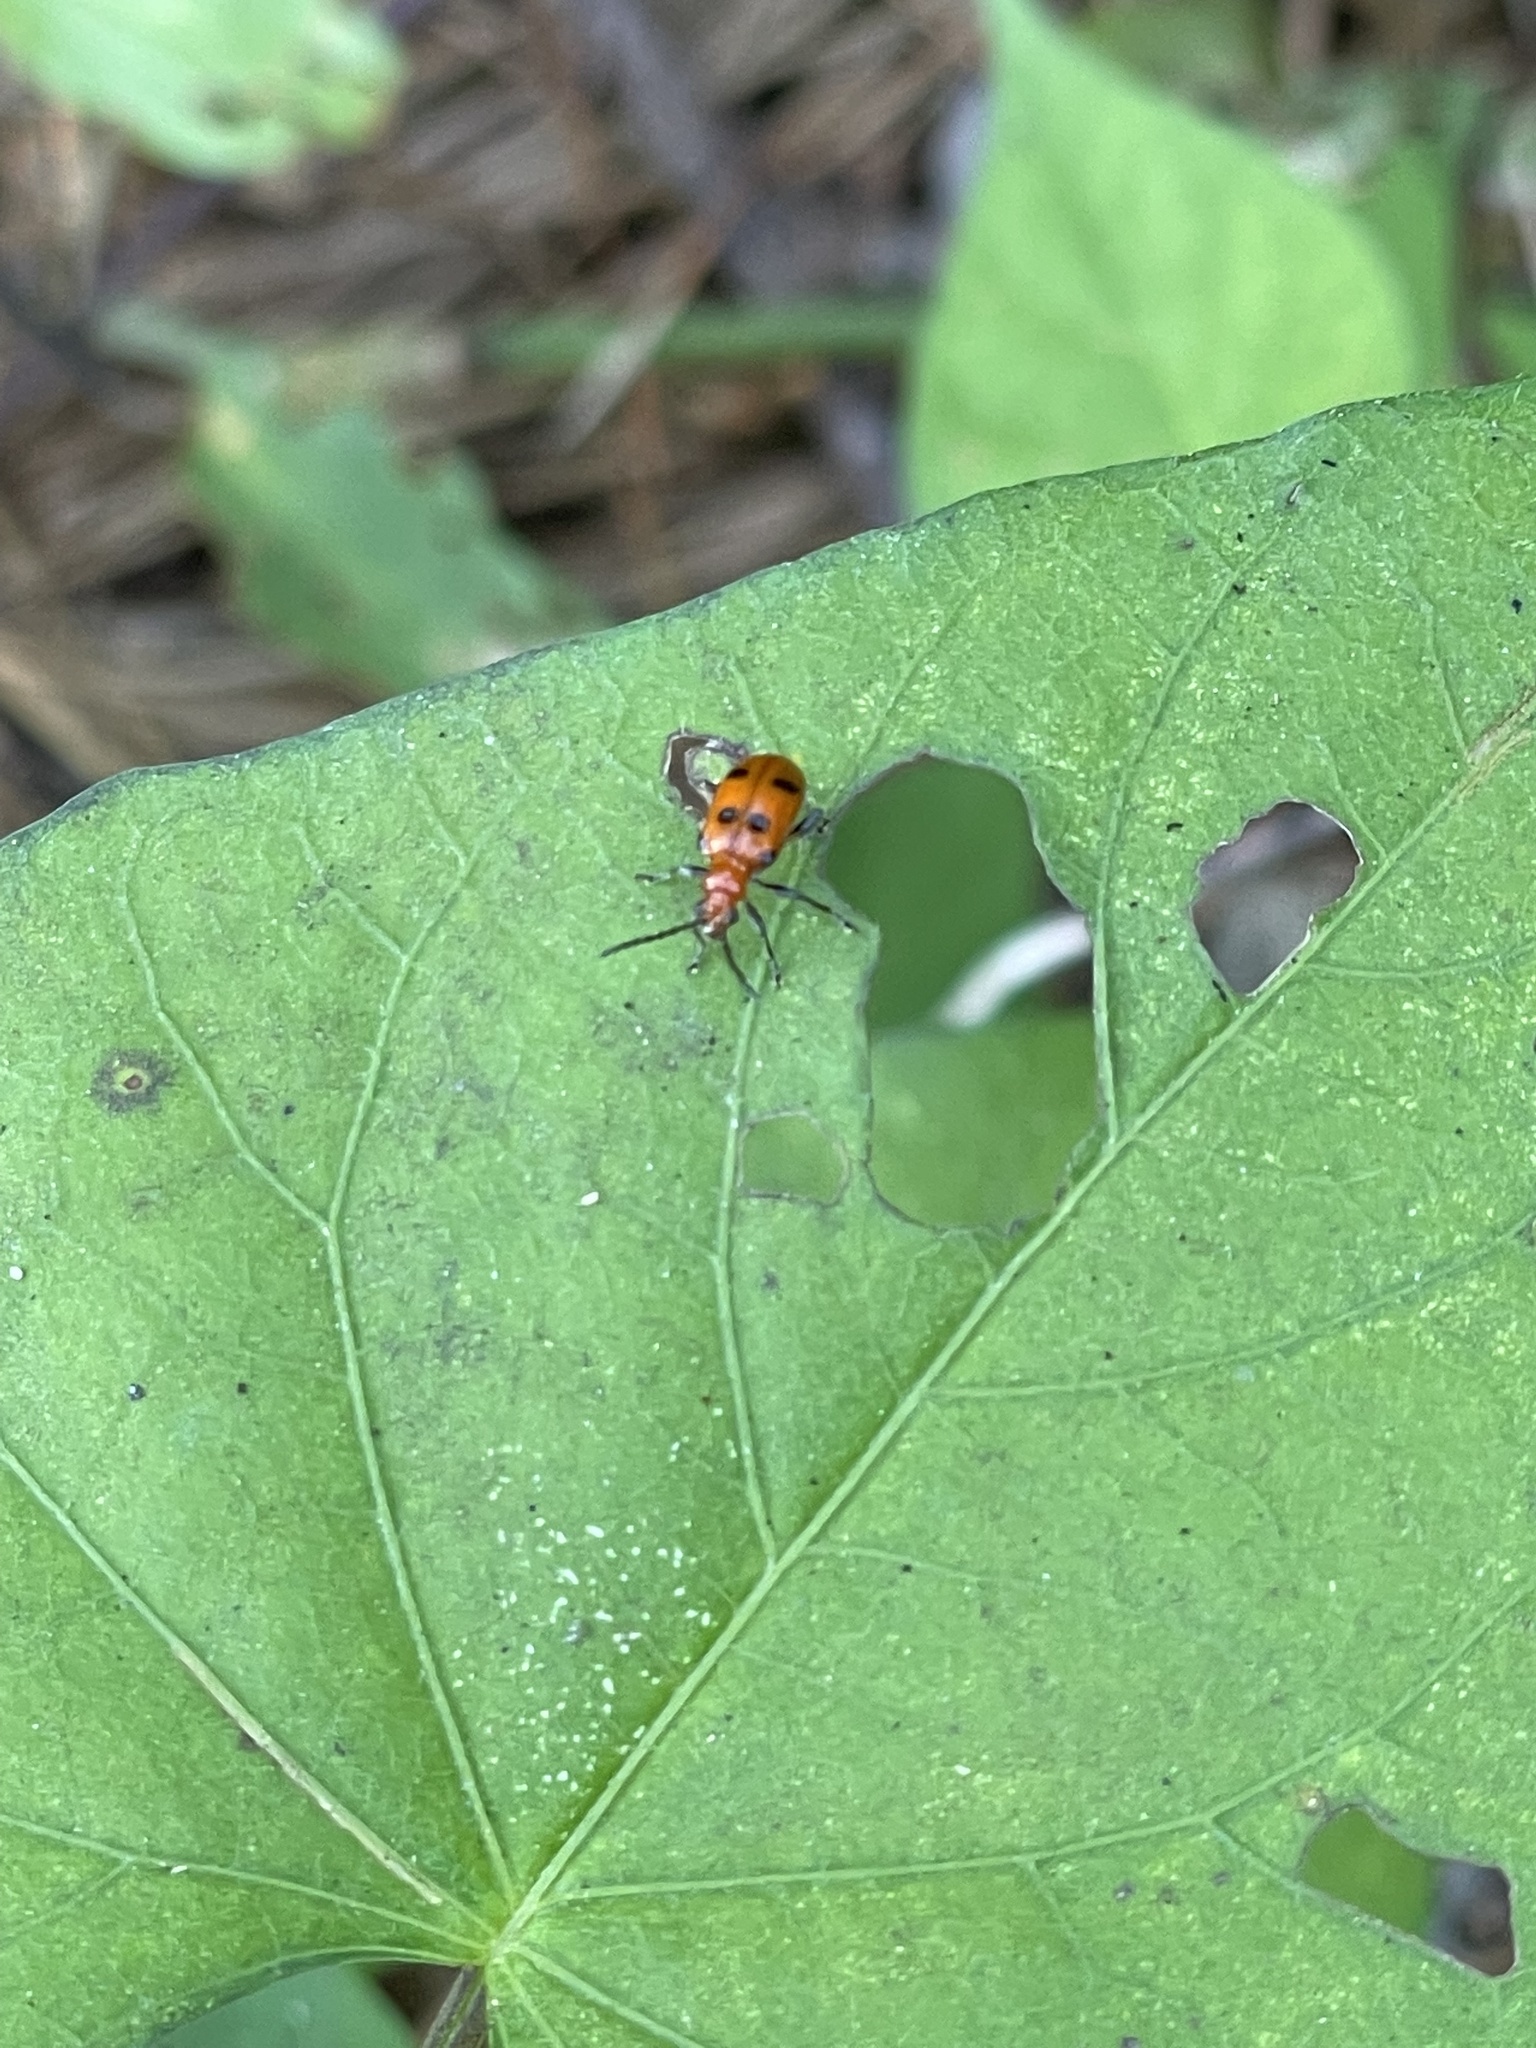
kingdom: Animalia
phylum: Arthropoda
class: Insecta
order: Coleoptera
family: Chrysomelidae
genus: Neolema
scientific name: Neolema sexpunctata
